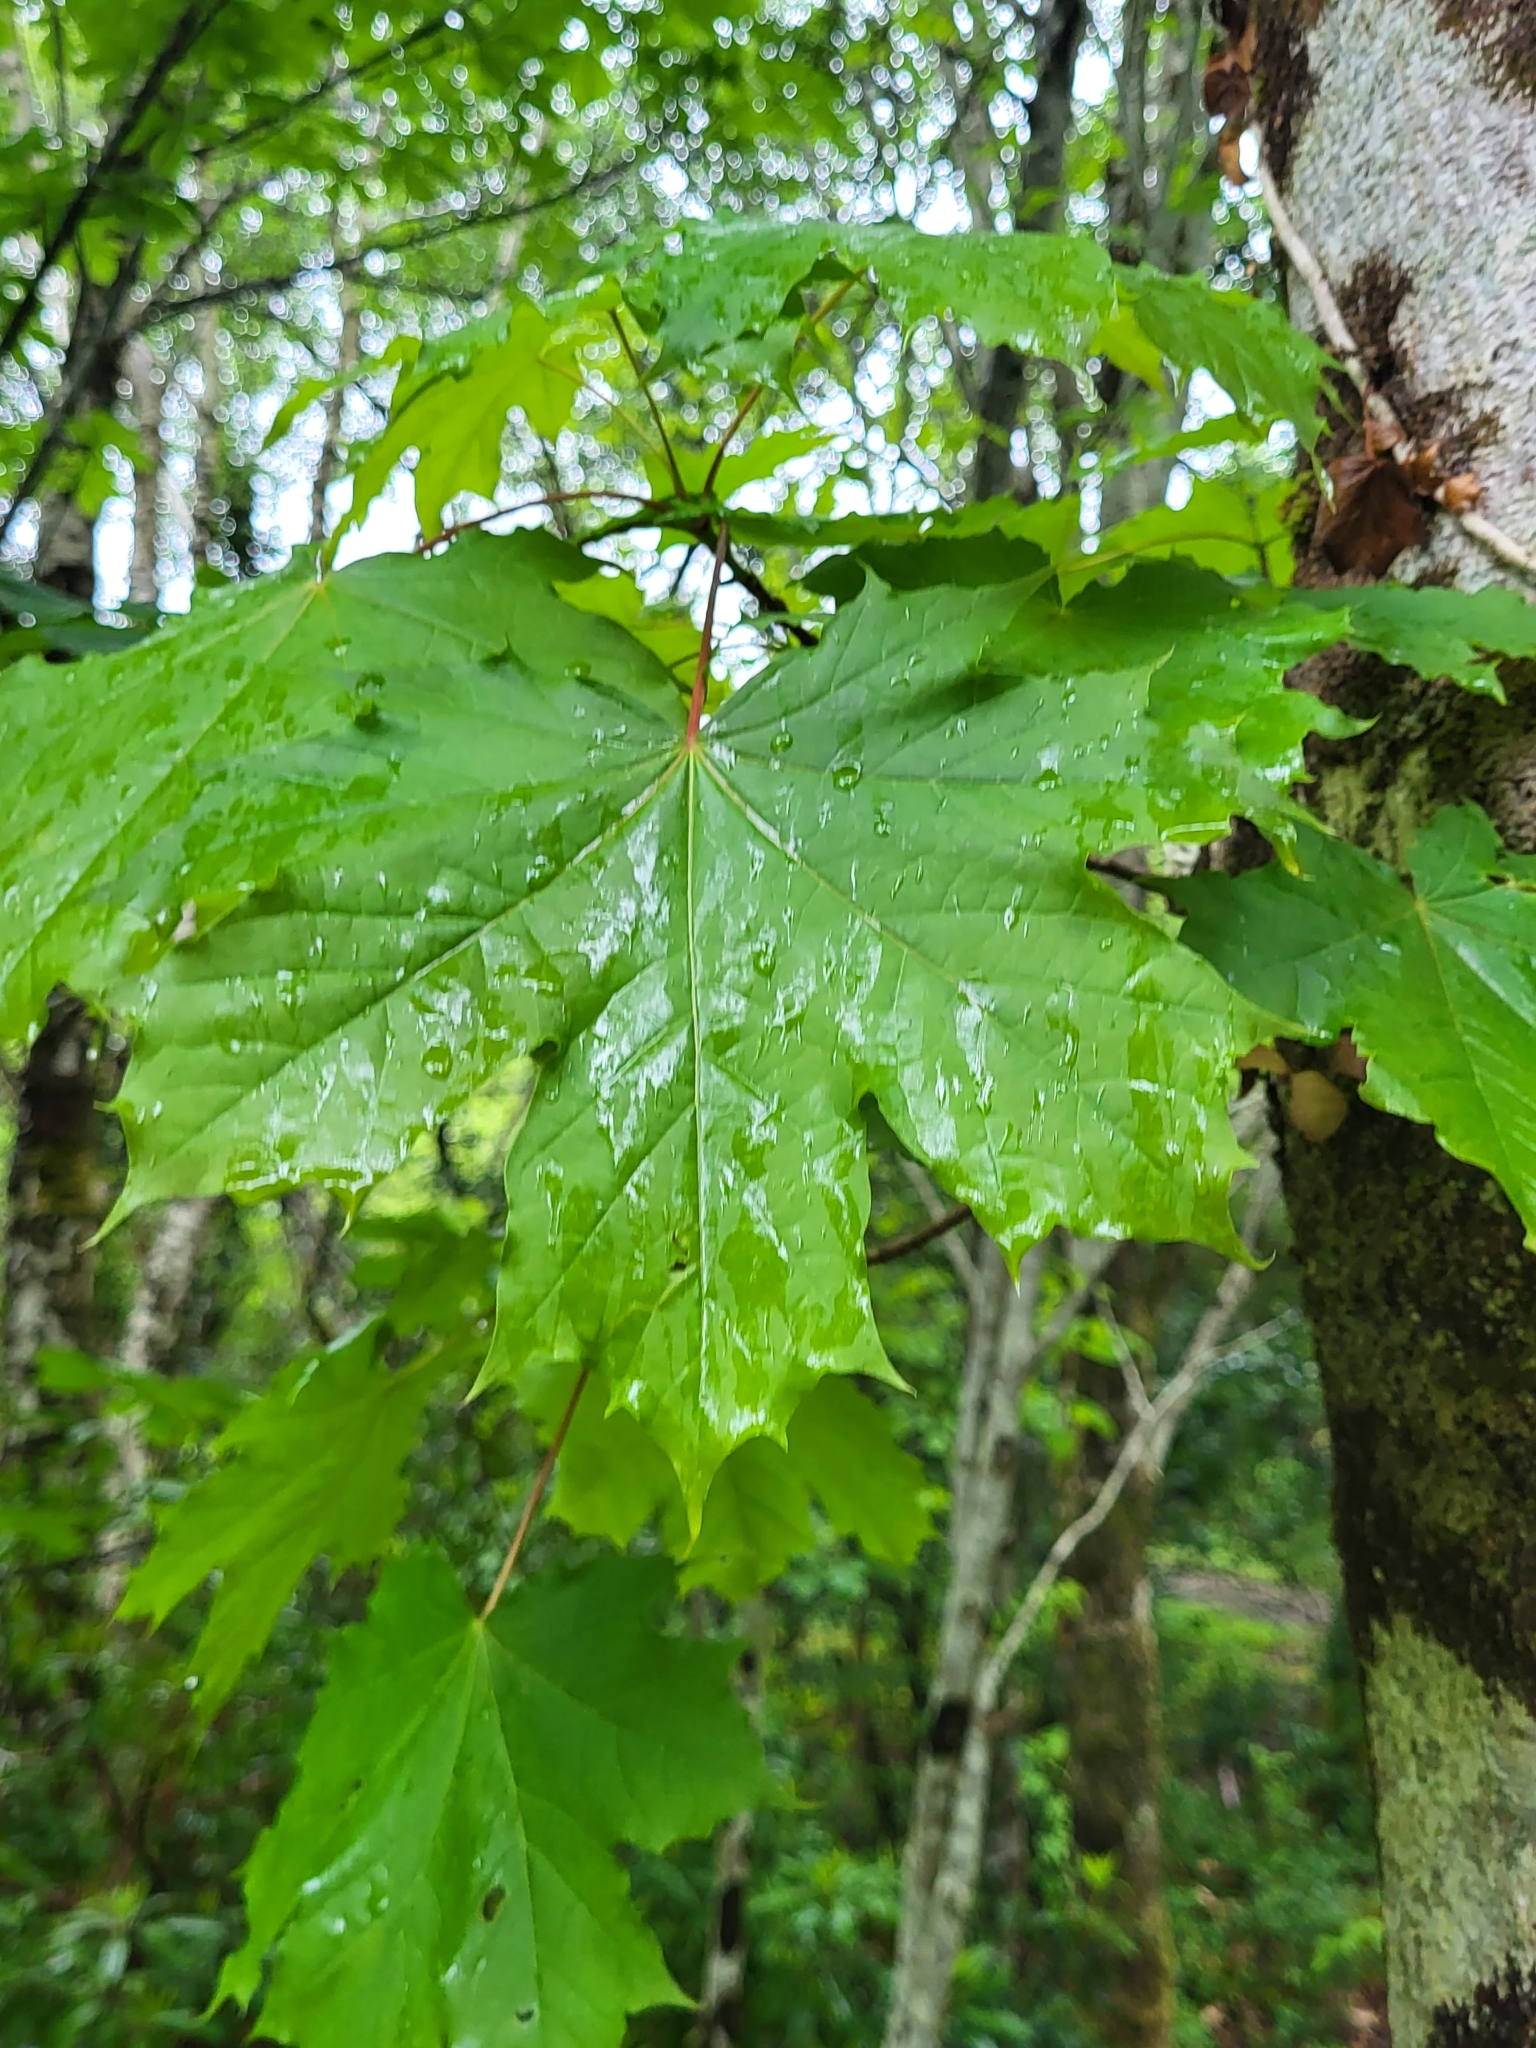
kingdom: Plantae
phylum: Tracheophyta
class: Magnoliopsida
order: Sapindales
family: Sapindaceae
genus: Acer
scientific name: Acer platanoides
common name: Norway maple
